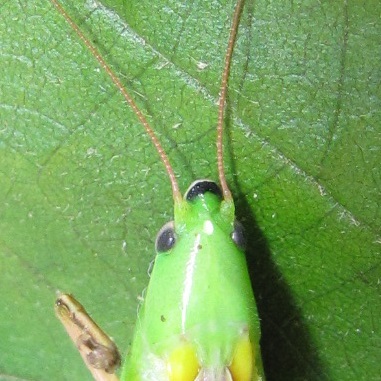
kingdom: Animalia
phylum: Arthropoda
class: Insecta
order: Orthoptera
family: Tettigoniidae
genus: Neoconocephalus
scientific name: Neoconocephalus triops
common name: Broad-tipped conehead
